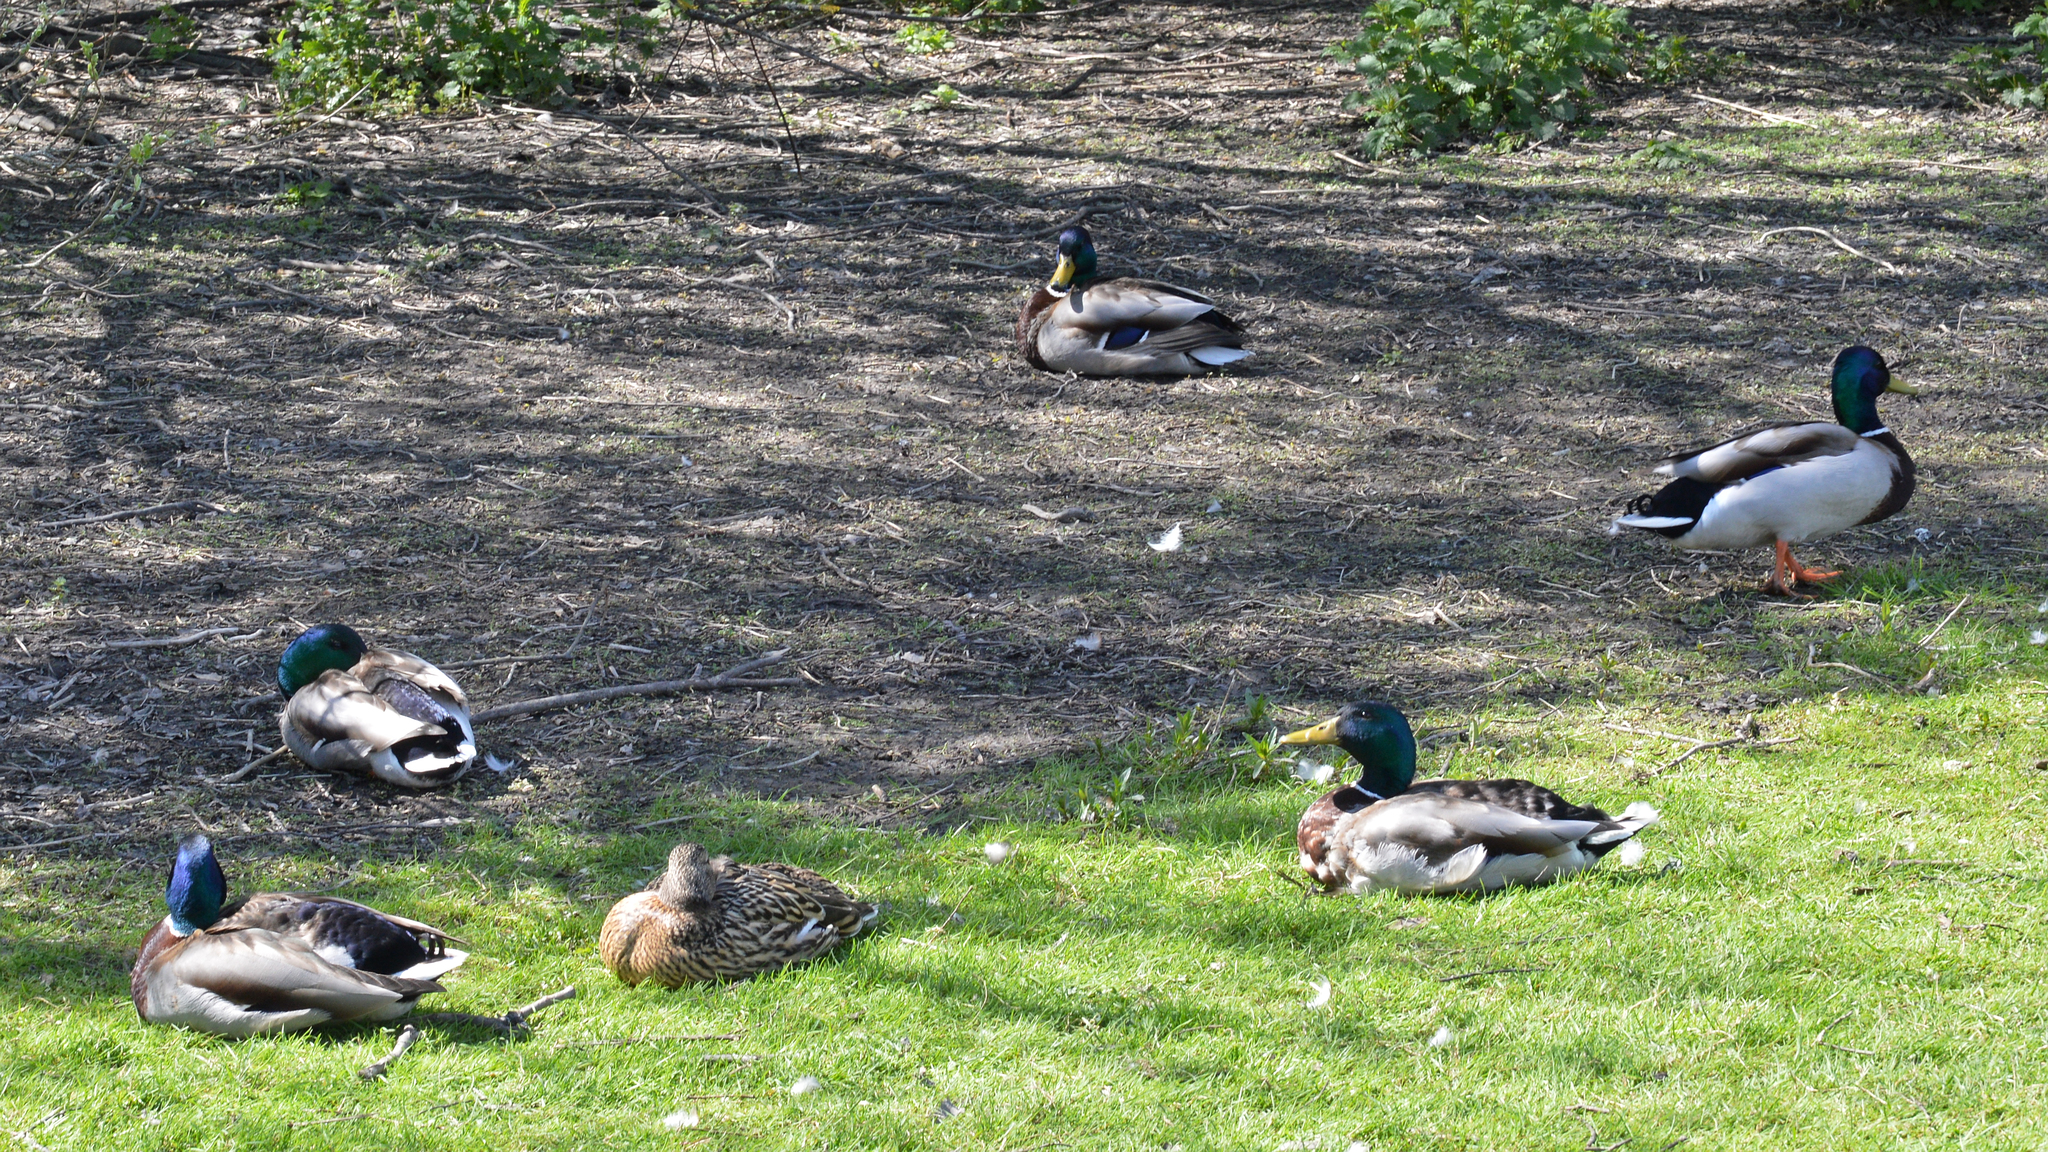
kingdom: Animalia
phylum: Chordata
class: Aves
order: Anseriformes
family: Anatidae
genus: Anas
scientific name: Anas platyrhynchos
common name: Mallard
